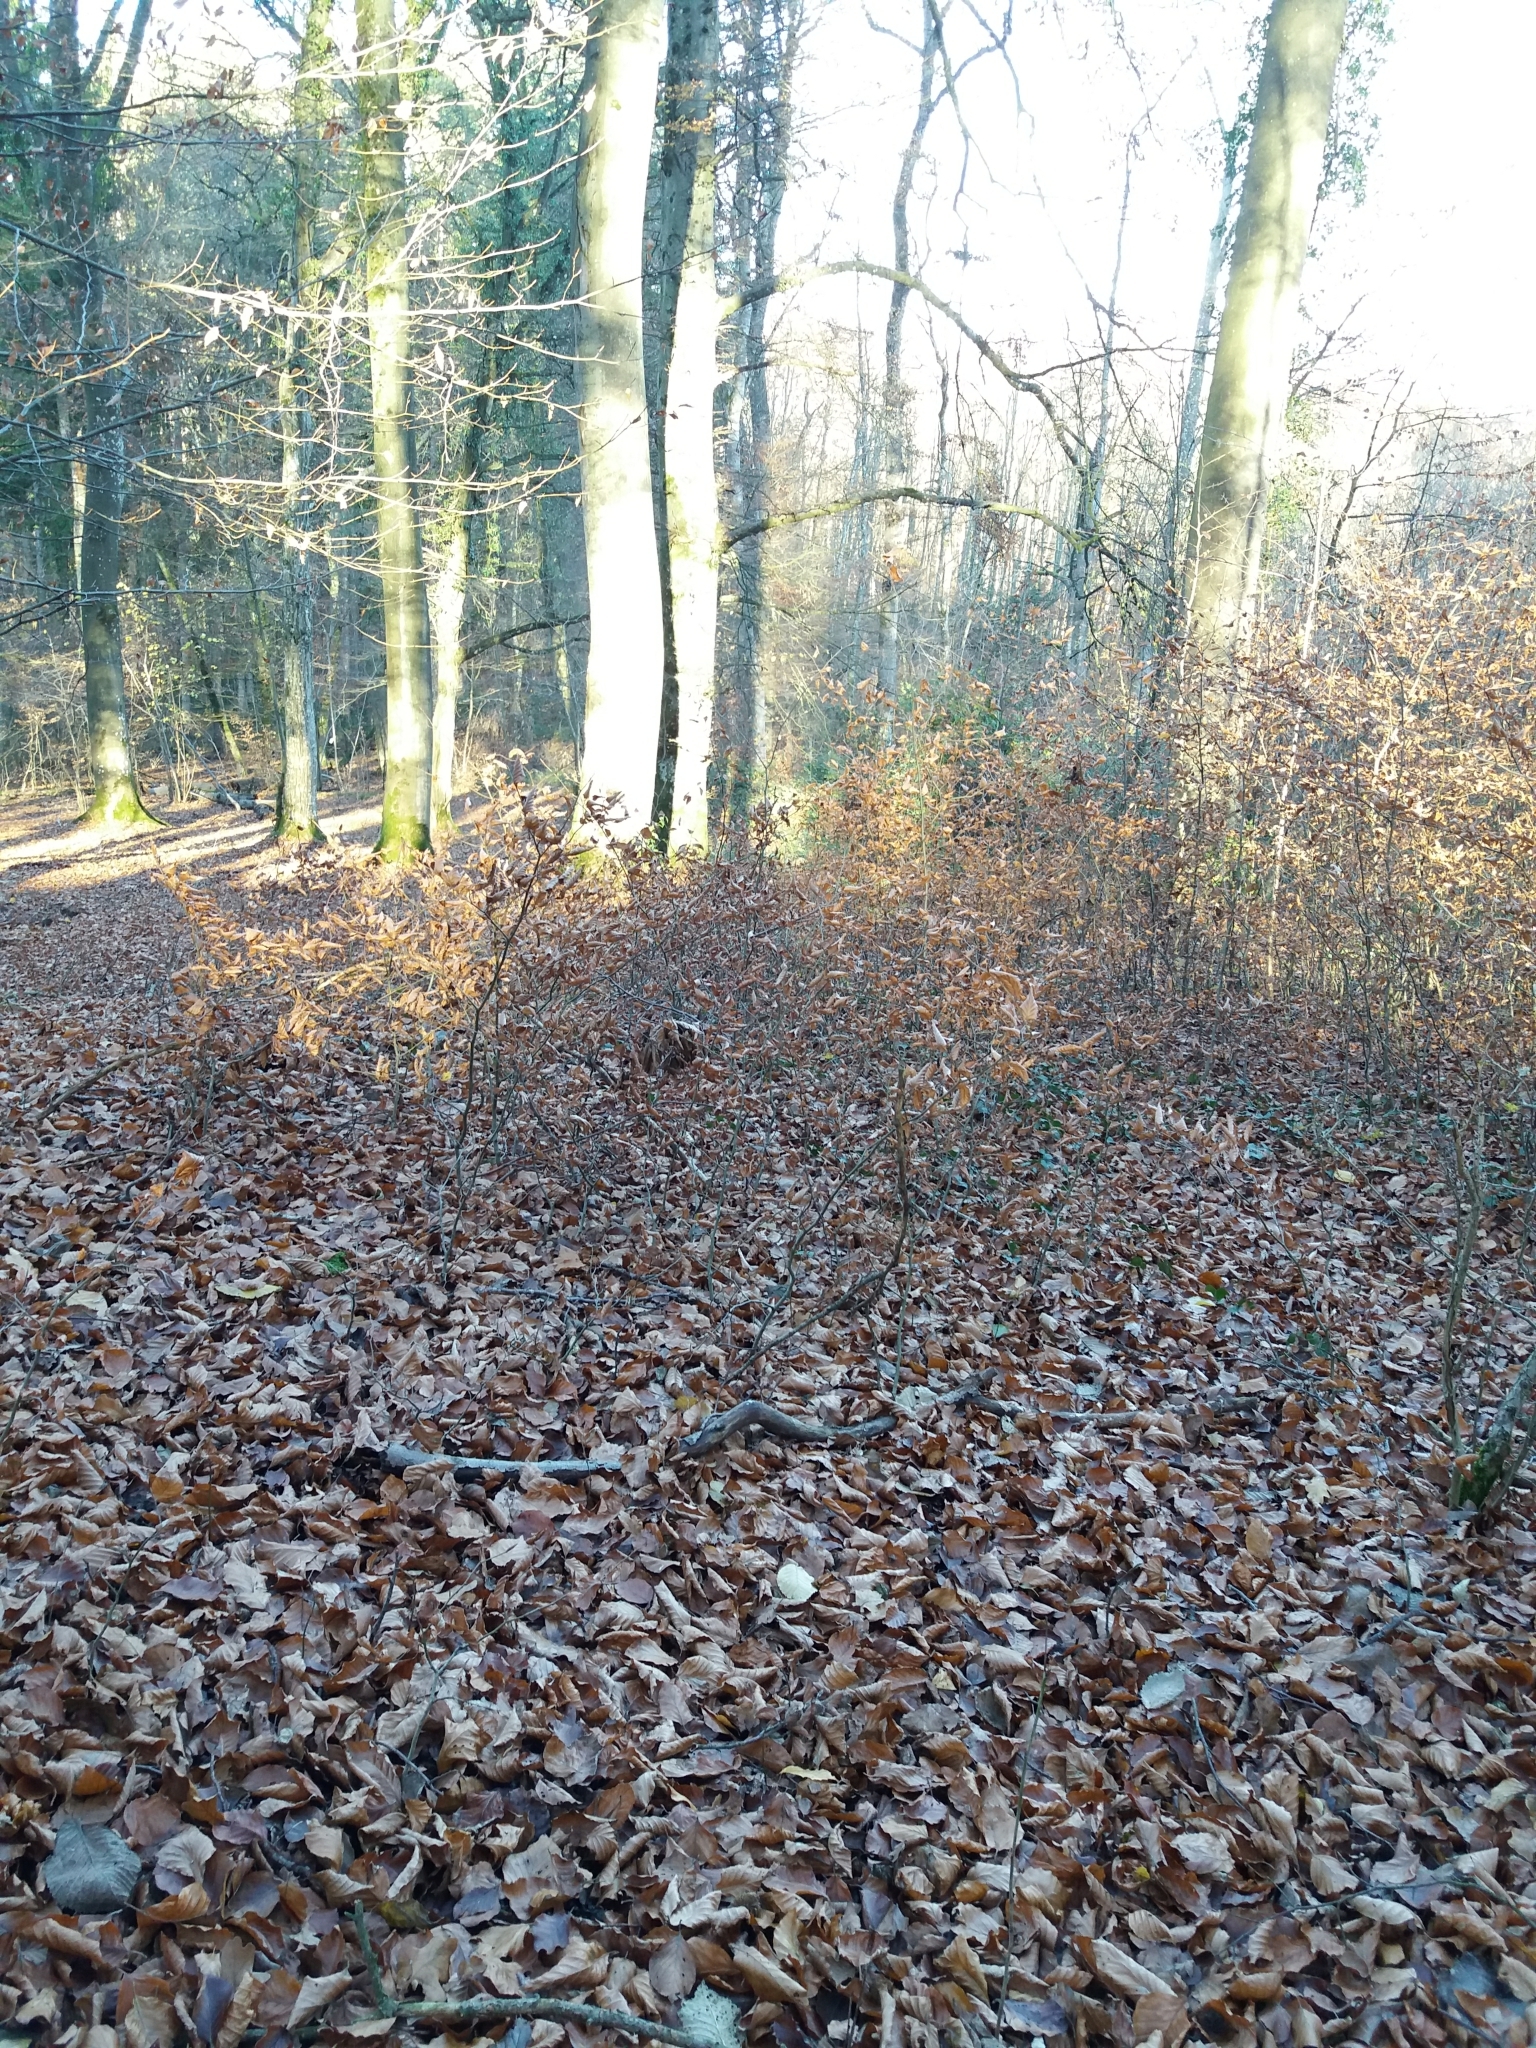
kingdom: Plantae
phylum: Tracheophyta
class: Magnoliopsida
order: Fagales
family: Fagaceae
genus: Fagus
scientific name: Fagus sylvatica
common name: Beech
